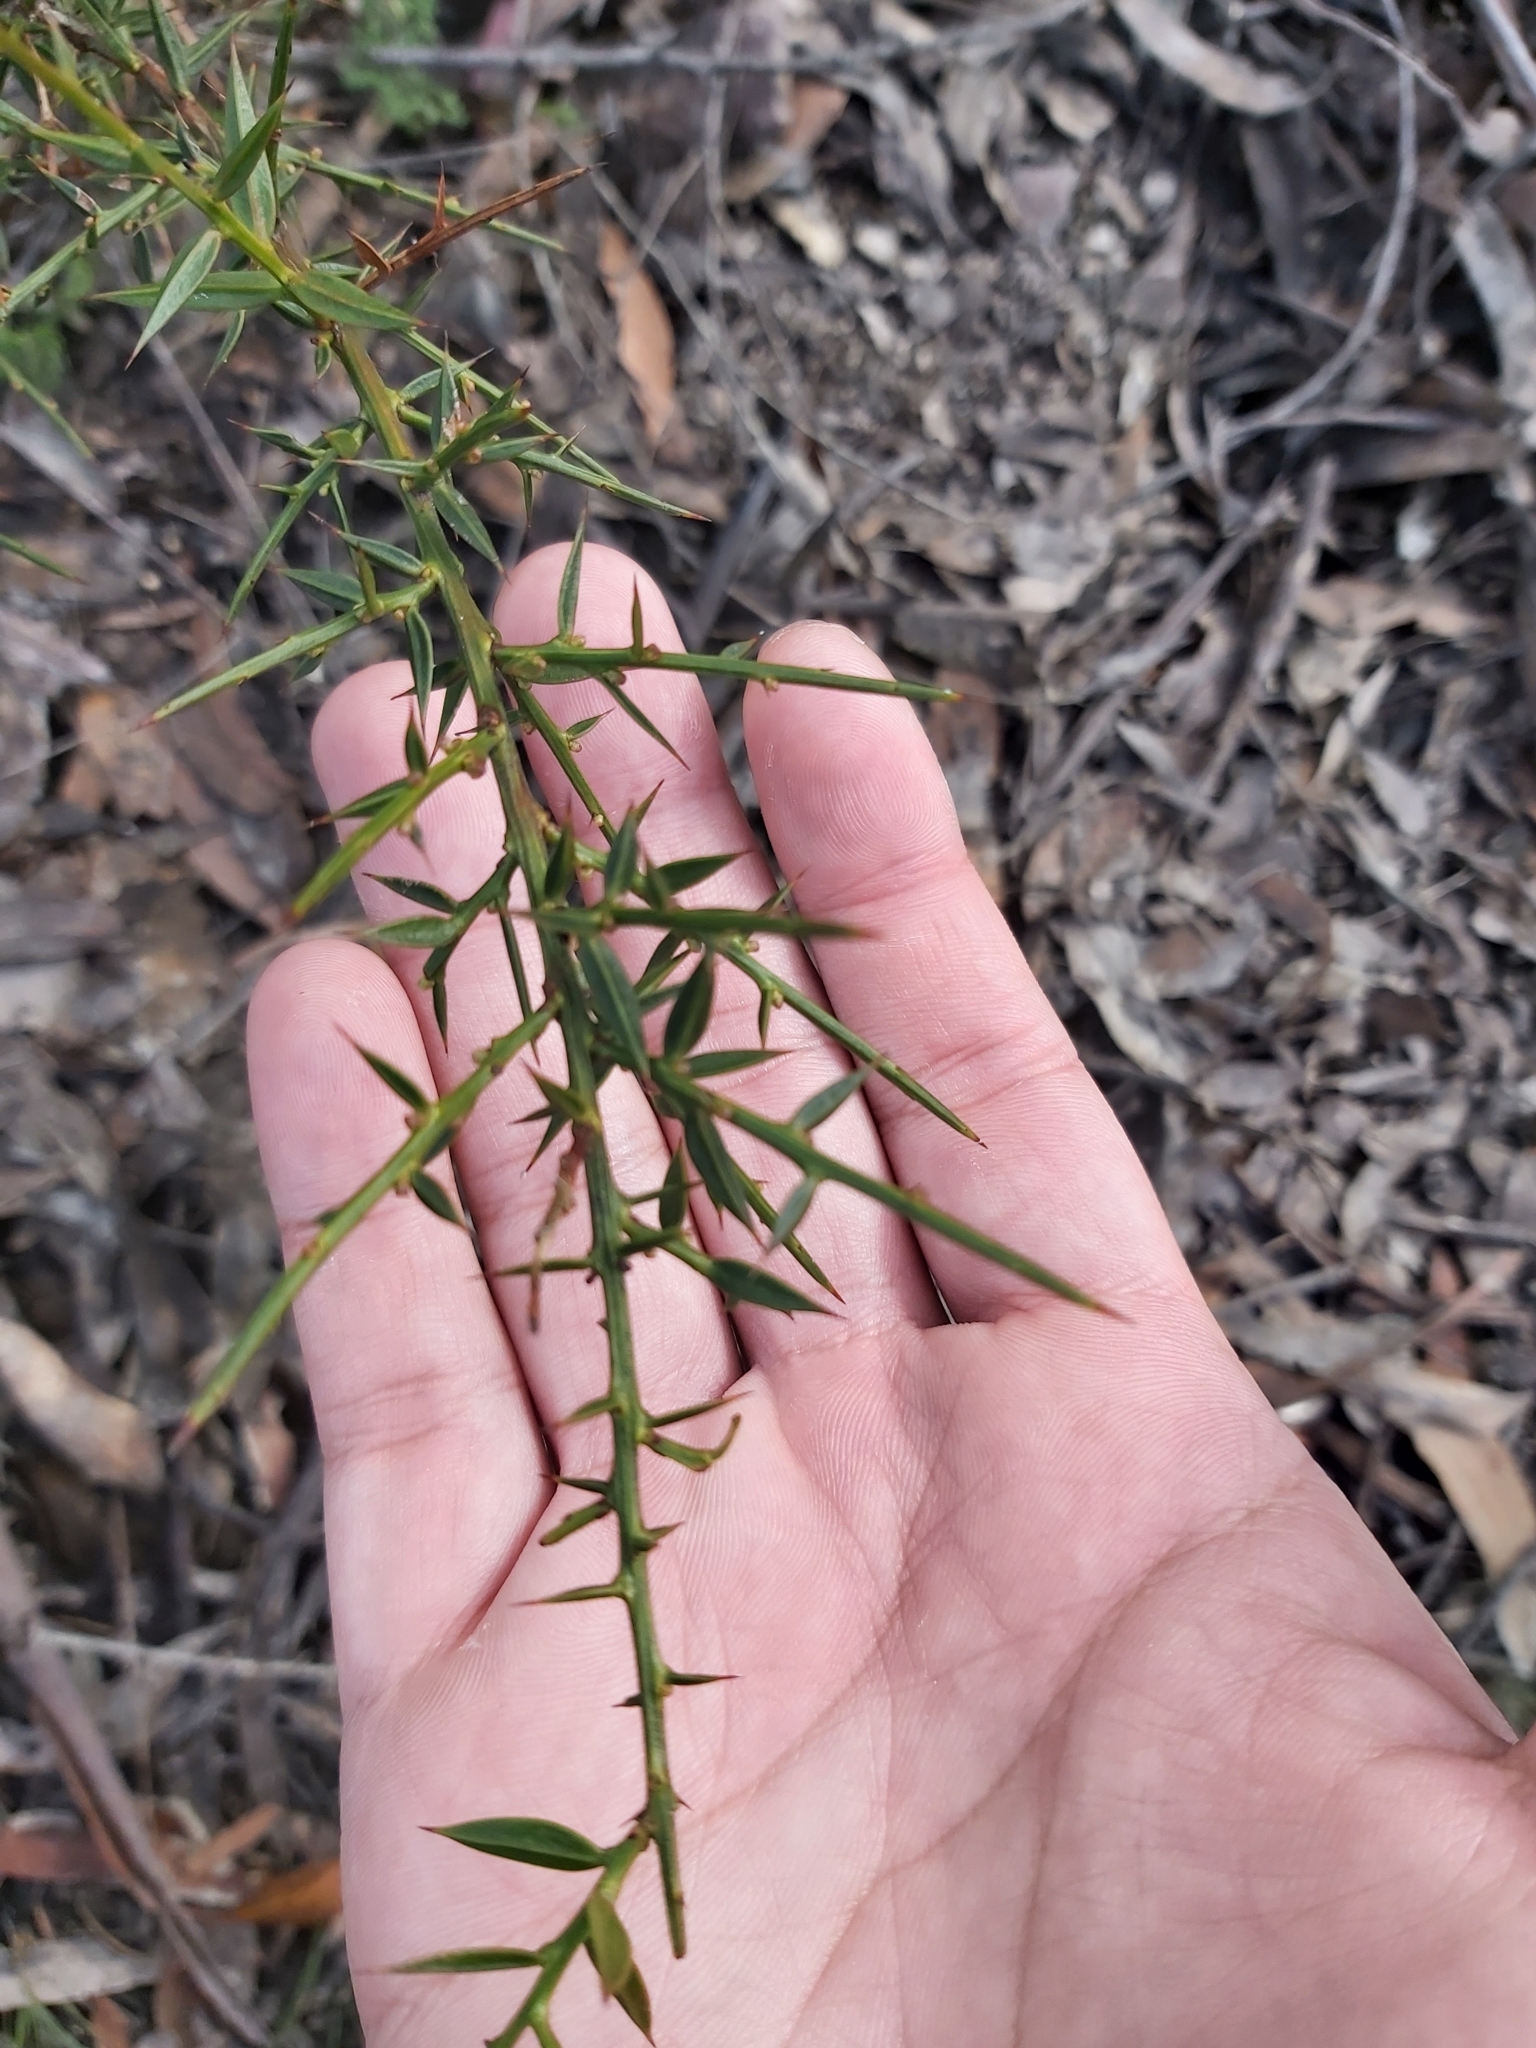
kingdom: Plantae
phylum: Tracheophyta
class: Magnoliopsida
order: Fabales
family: Fabaceae
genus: Daviesia
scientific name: Daviesia ulicifolia
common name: Gorse bitter-pea
